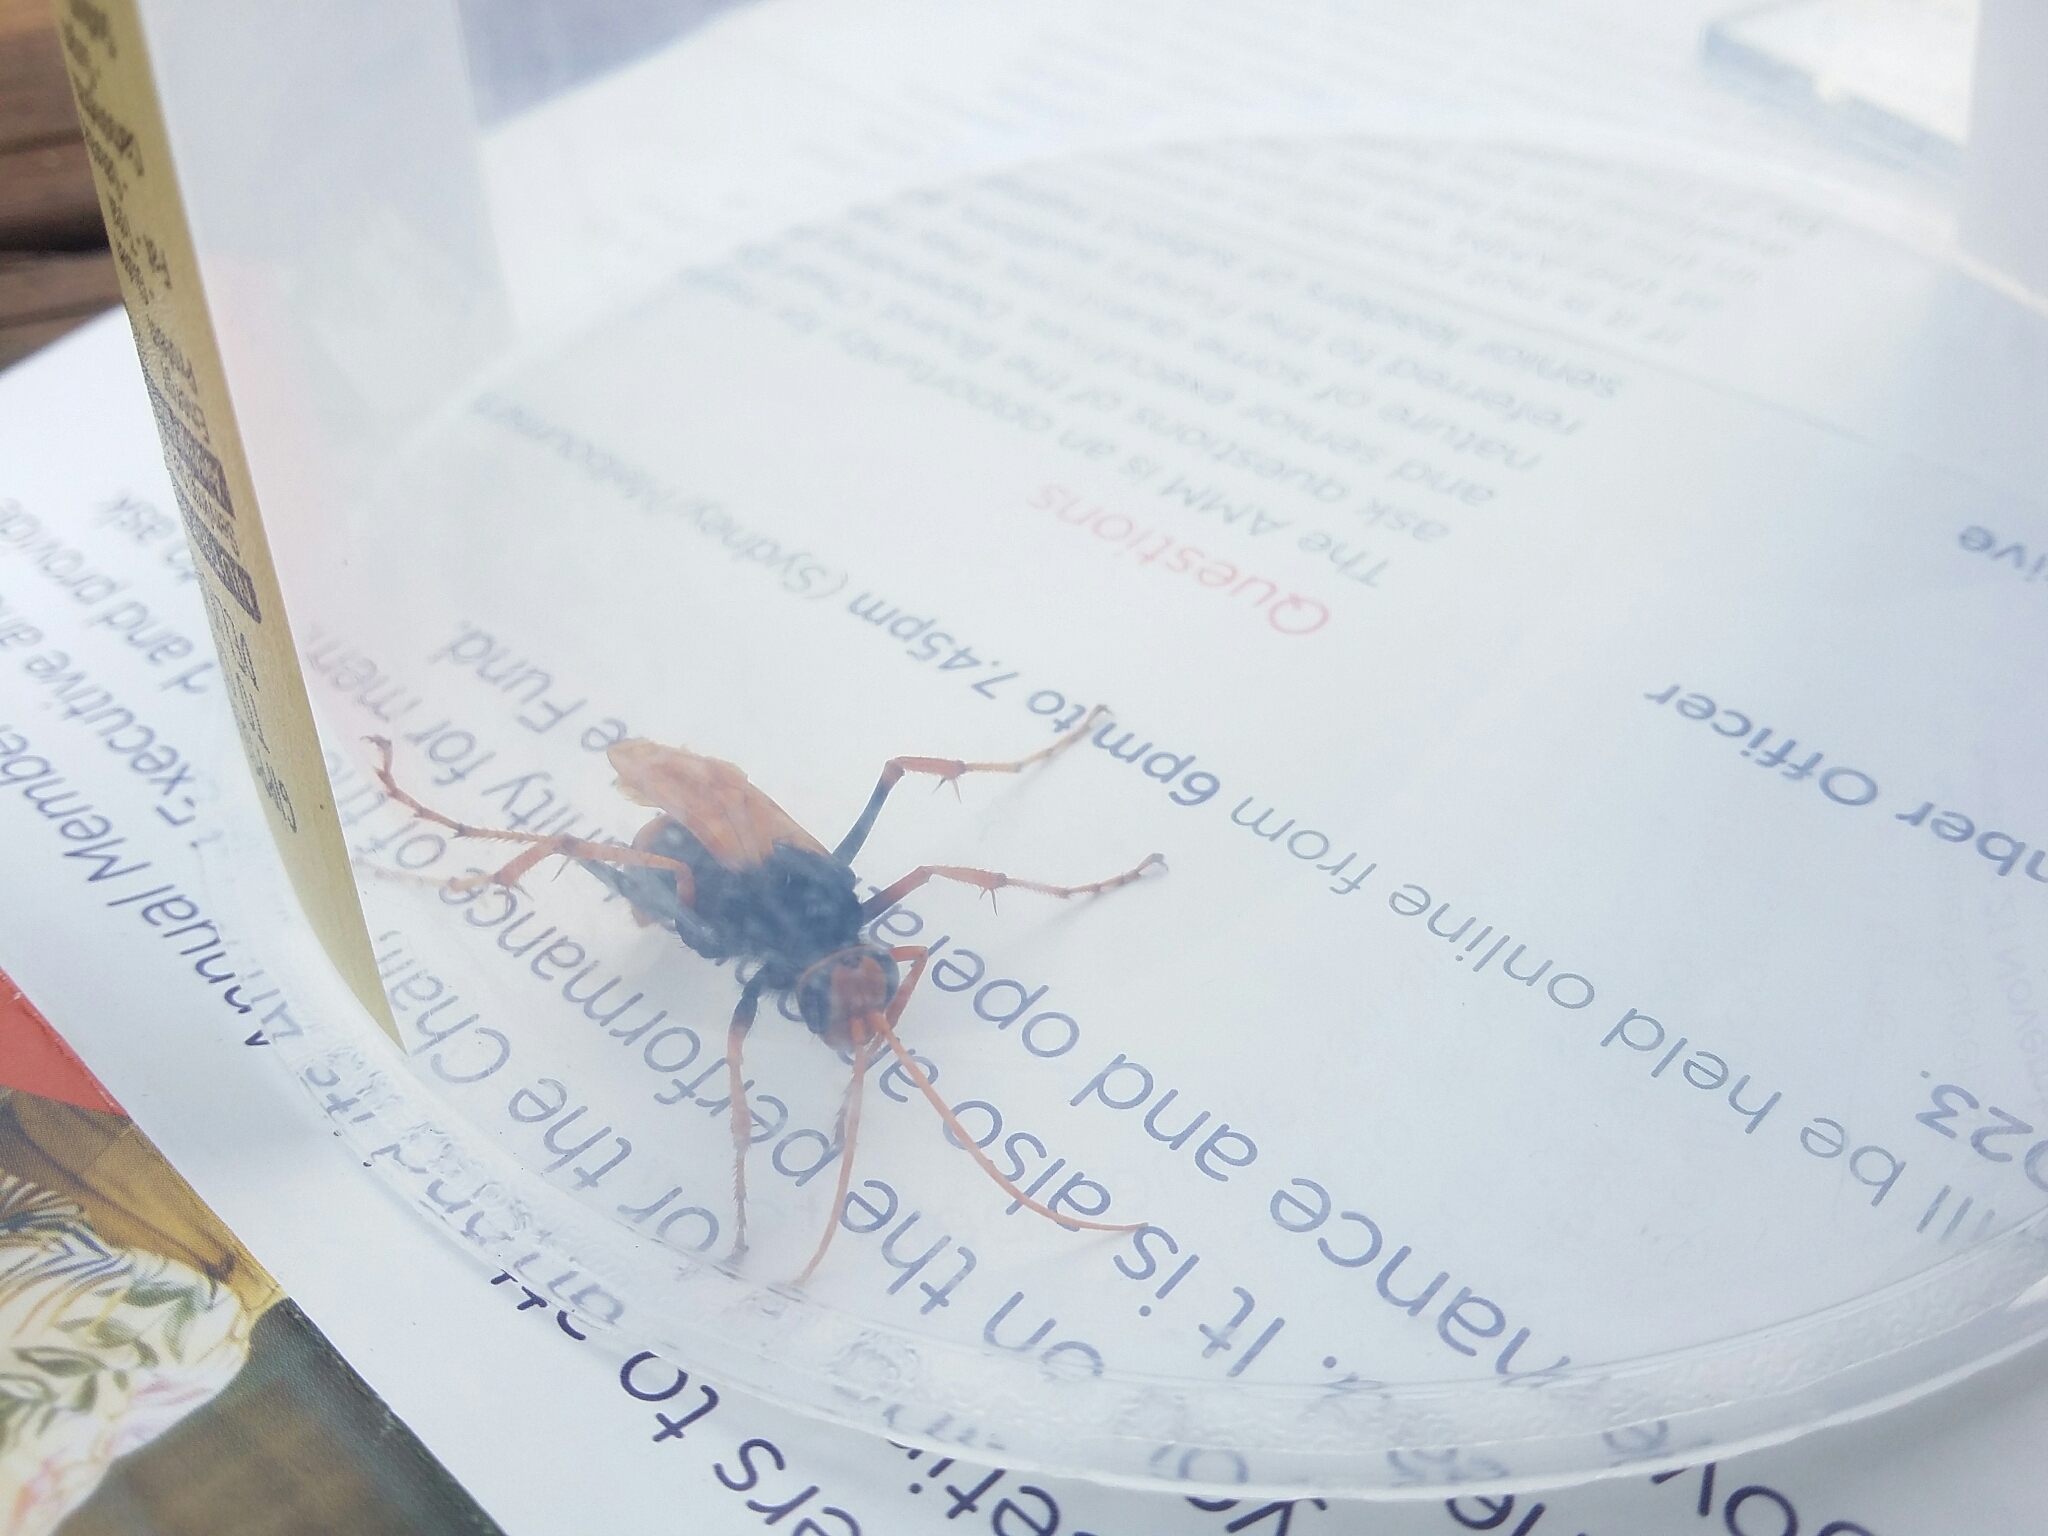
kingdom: Animalia
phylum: Arthropoda
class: Insecta
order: Hymenoptera
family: Pompilidae
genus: Cryptocheilus
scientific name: Cryptocheilus octomaculatus
